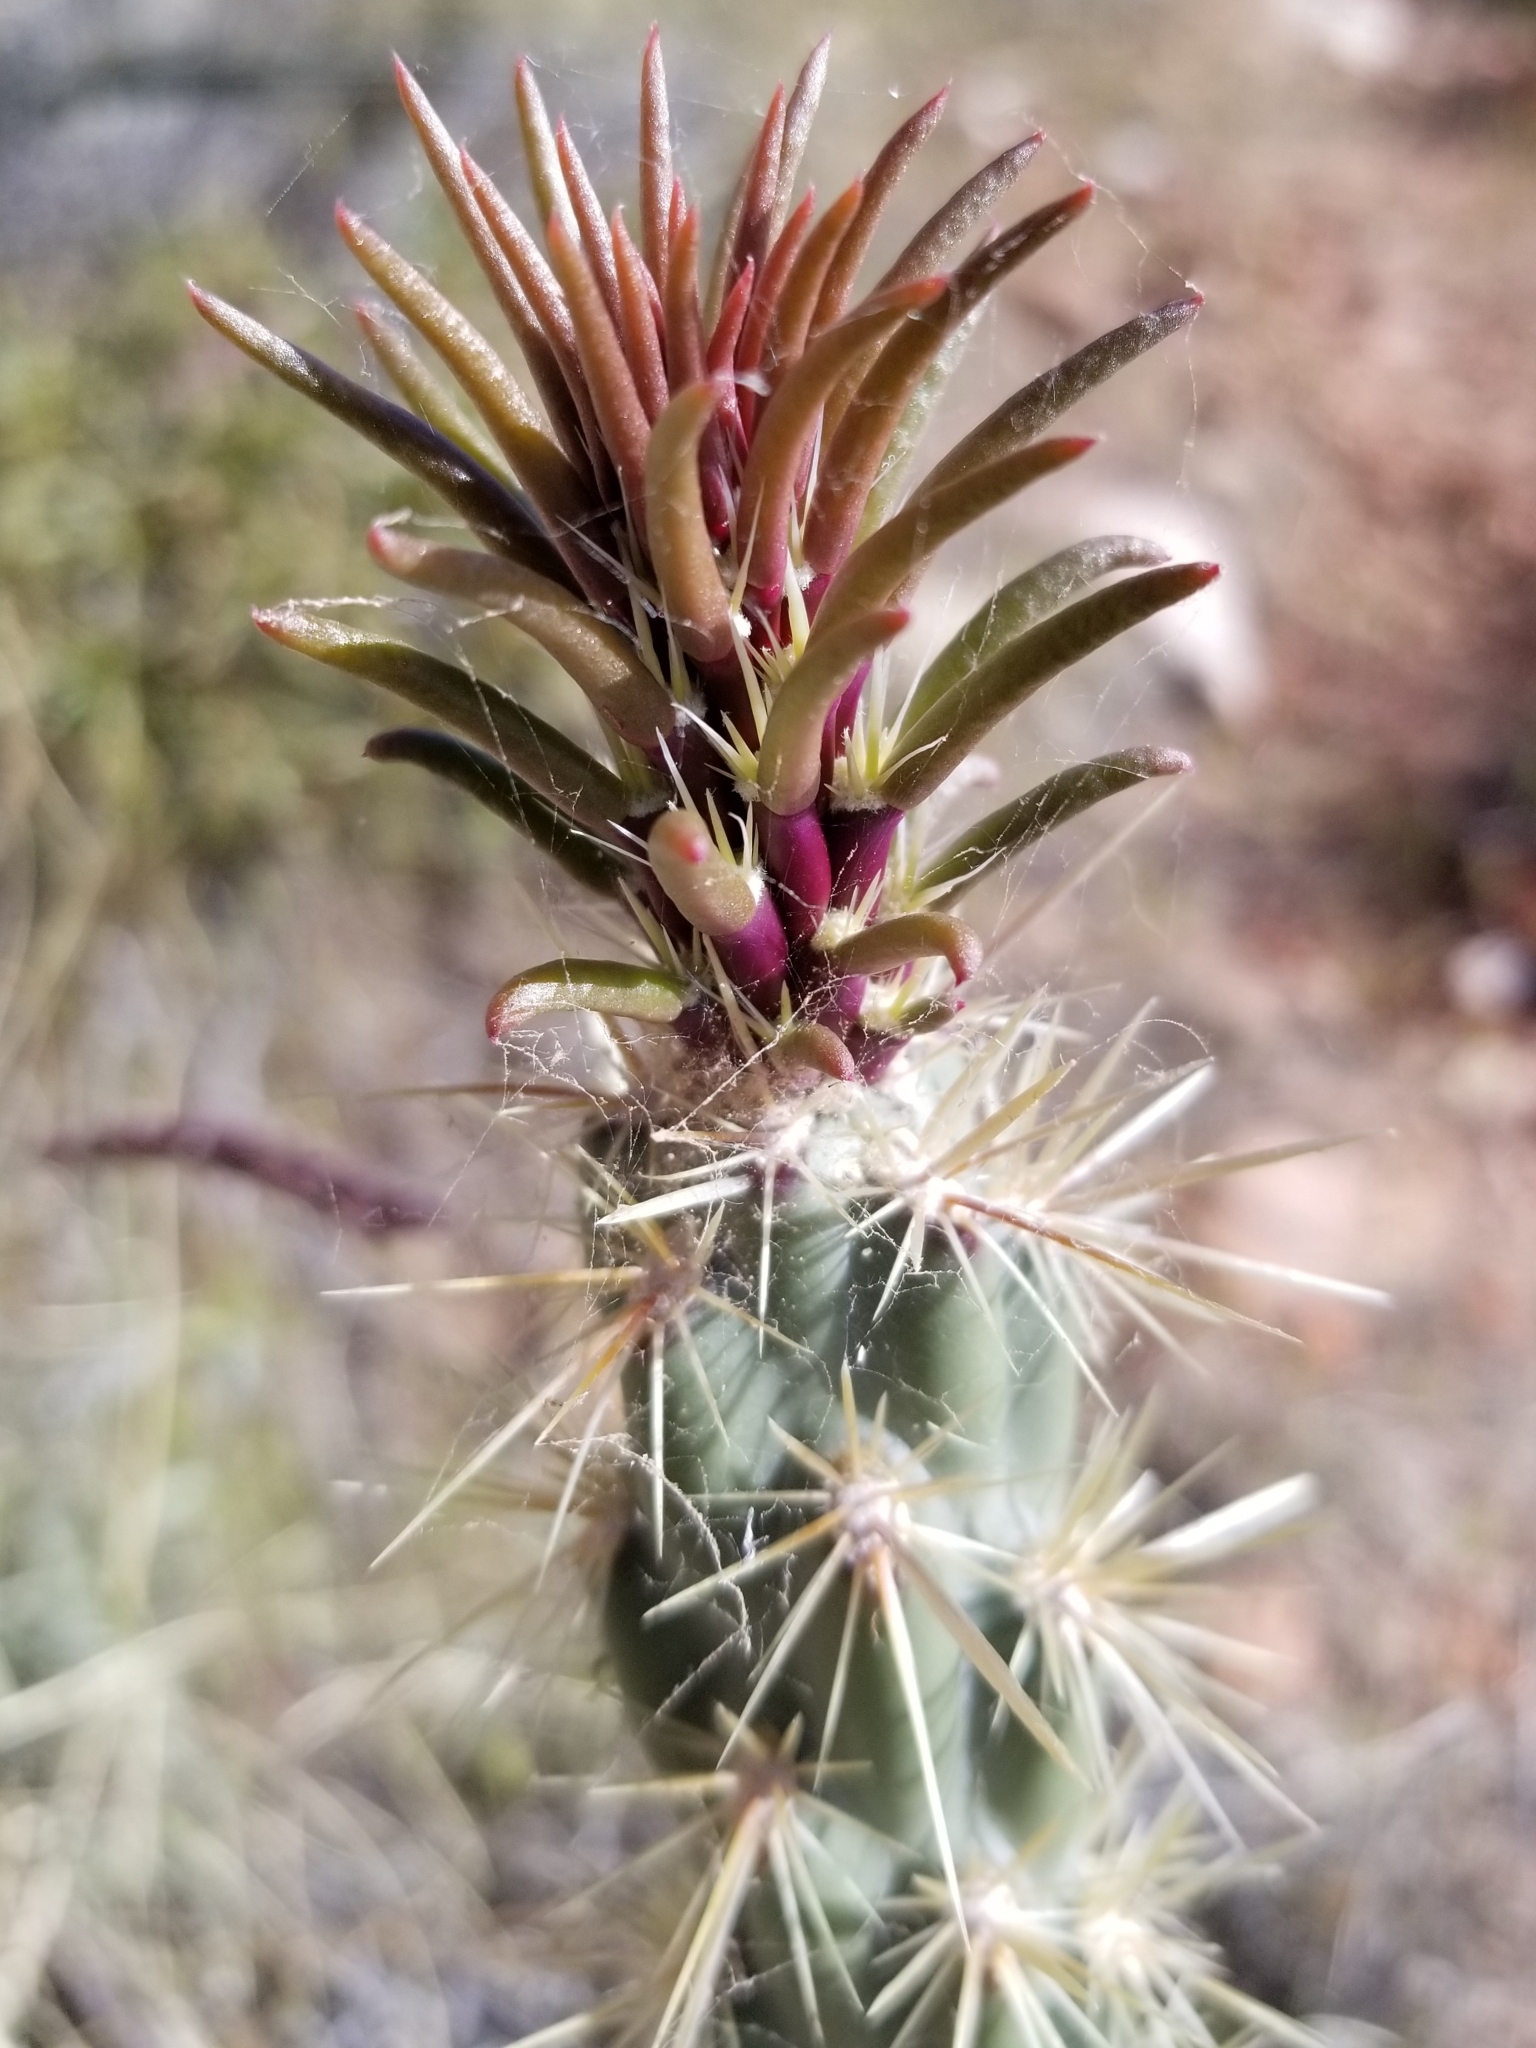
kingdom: Plantae
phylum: Tracheophyta
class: Magnoliopsida
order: Caryophyllales
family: Cactaceae
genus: Cylindropuntia
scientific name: Cylindropuntia echinocarpa
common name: Ground cholla
